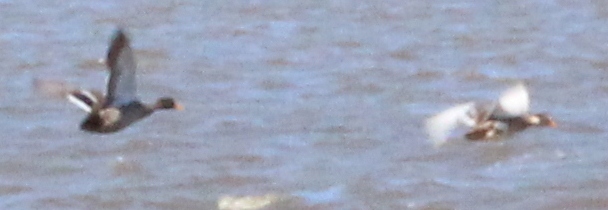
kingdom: Animalia
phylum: Chordata
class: Aves
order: Anseriformes
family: Anatidae
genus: Anas
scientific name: Anas
